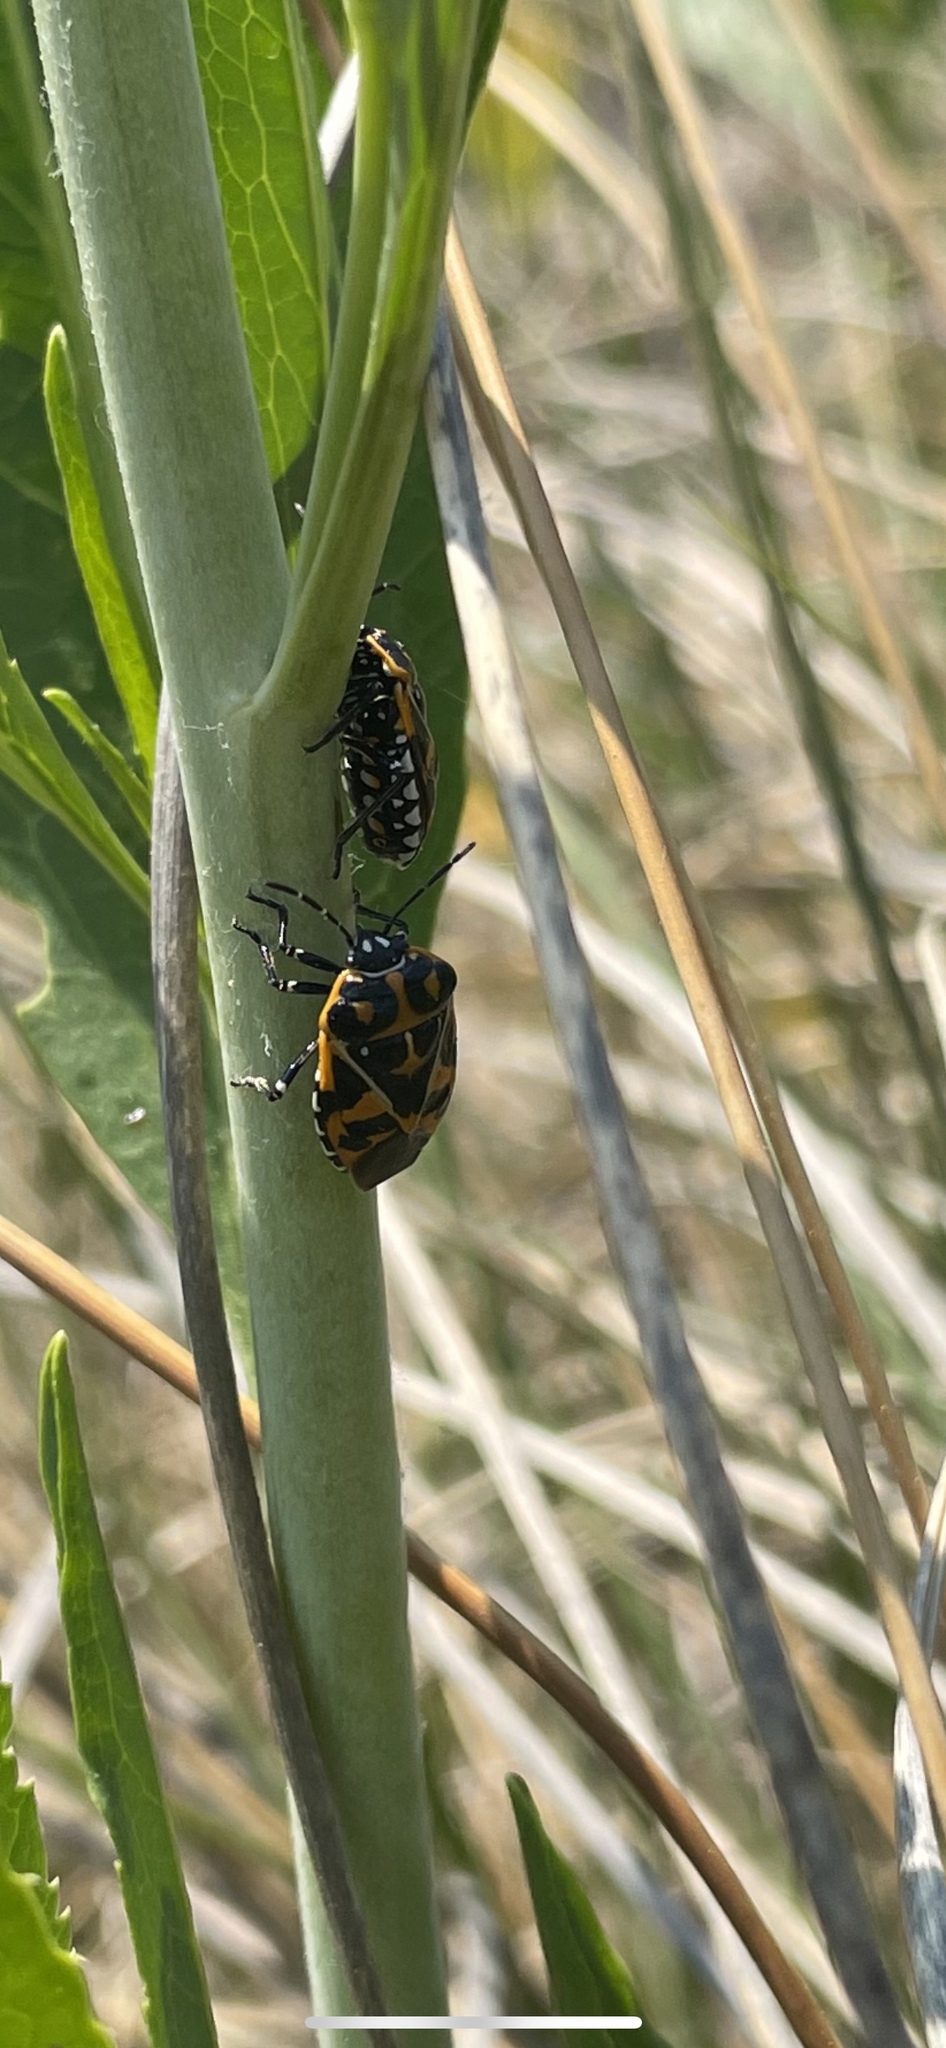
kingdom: Animalia
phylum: Arthropoda
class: Insecta
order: Hemiptera
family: Pentatomidae
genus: Murgantia
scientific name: Murgantia histrionica
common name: Harlequin bug
